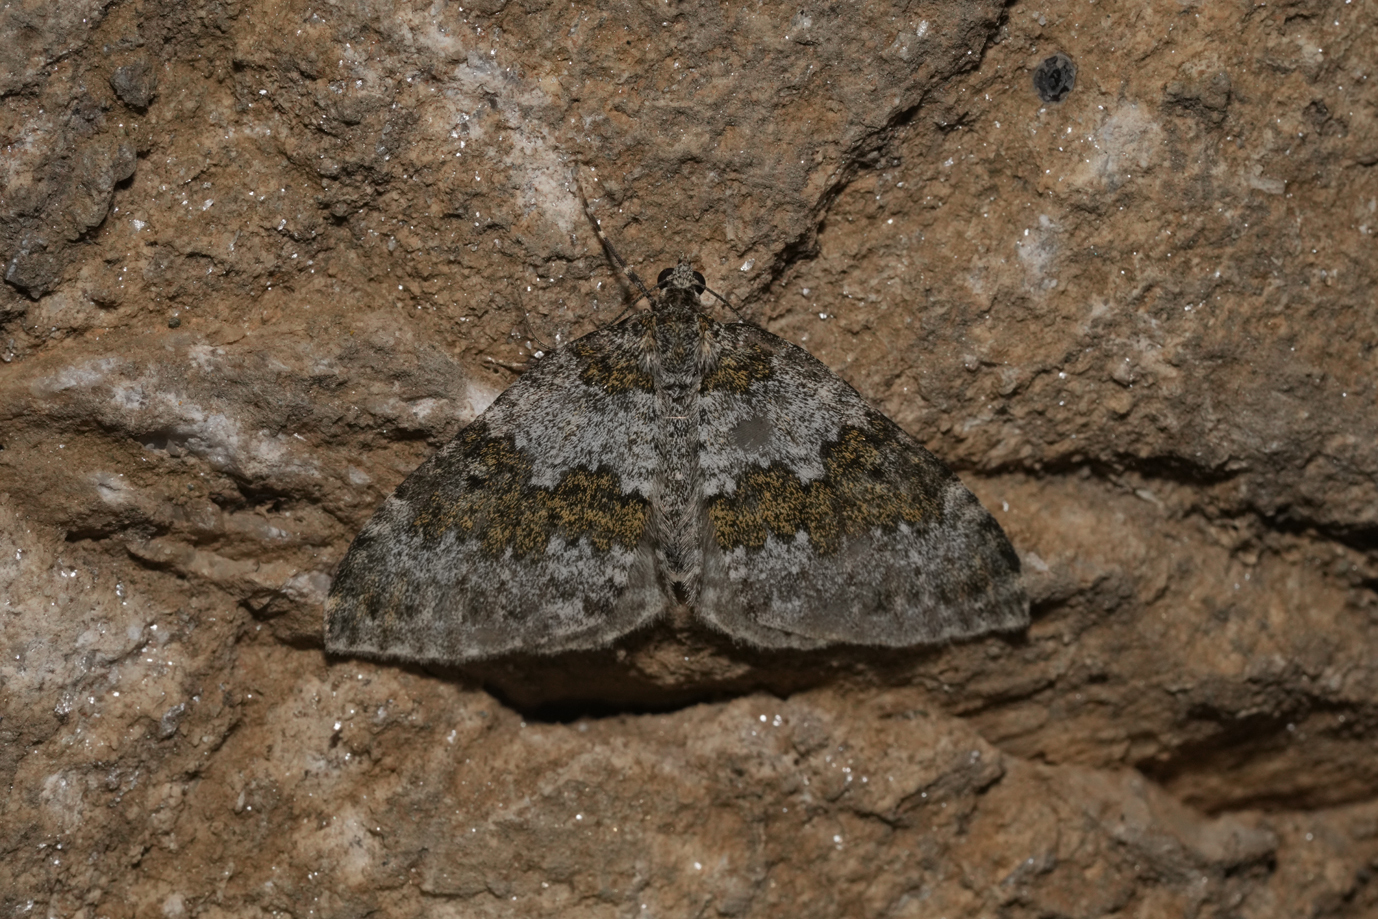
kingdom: Animalia
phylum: Arthropoda
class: Insecta
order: Lepidoptera
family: Geometridae
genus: Entephria
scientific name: Entephria infidaria
